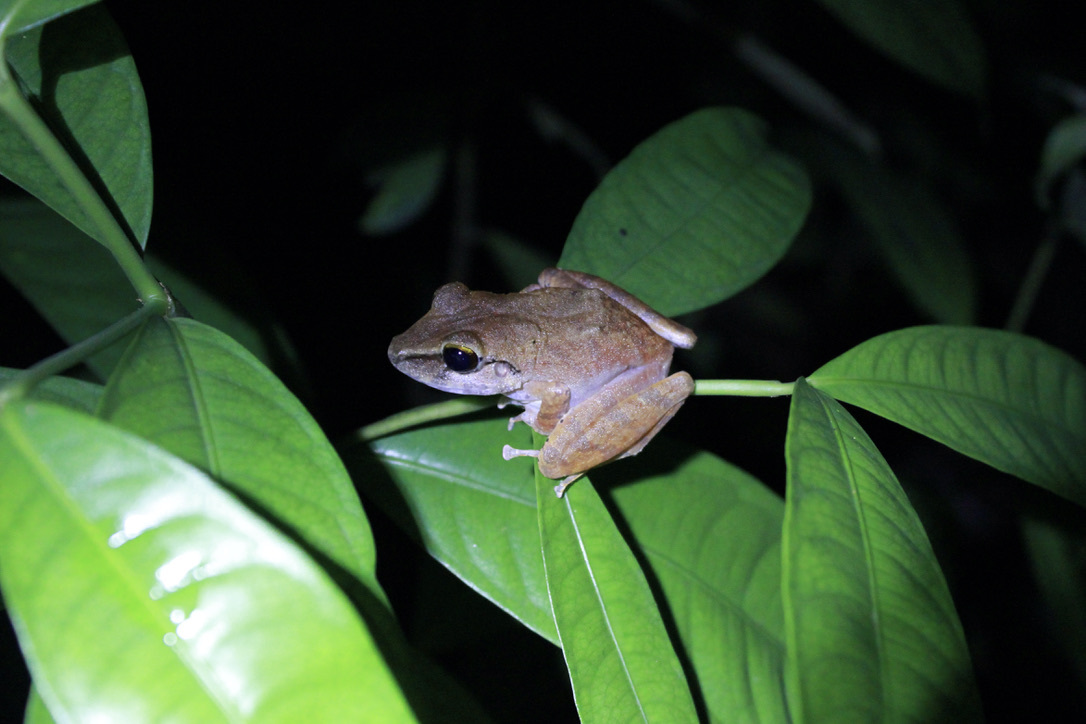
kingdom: Animalia
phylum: Chordata
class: Amphibia
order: Anura
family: Craugastoridae
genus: Pristimantis
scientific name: Pristimantis charlottevillensis
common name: Charlotteville leaf-litter frog
